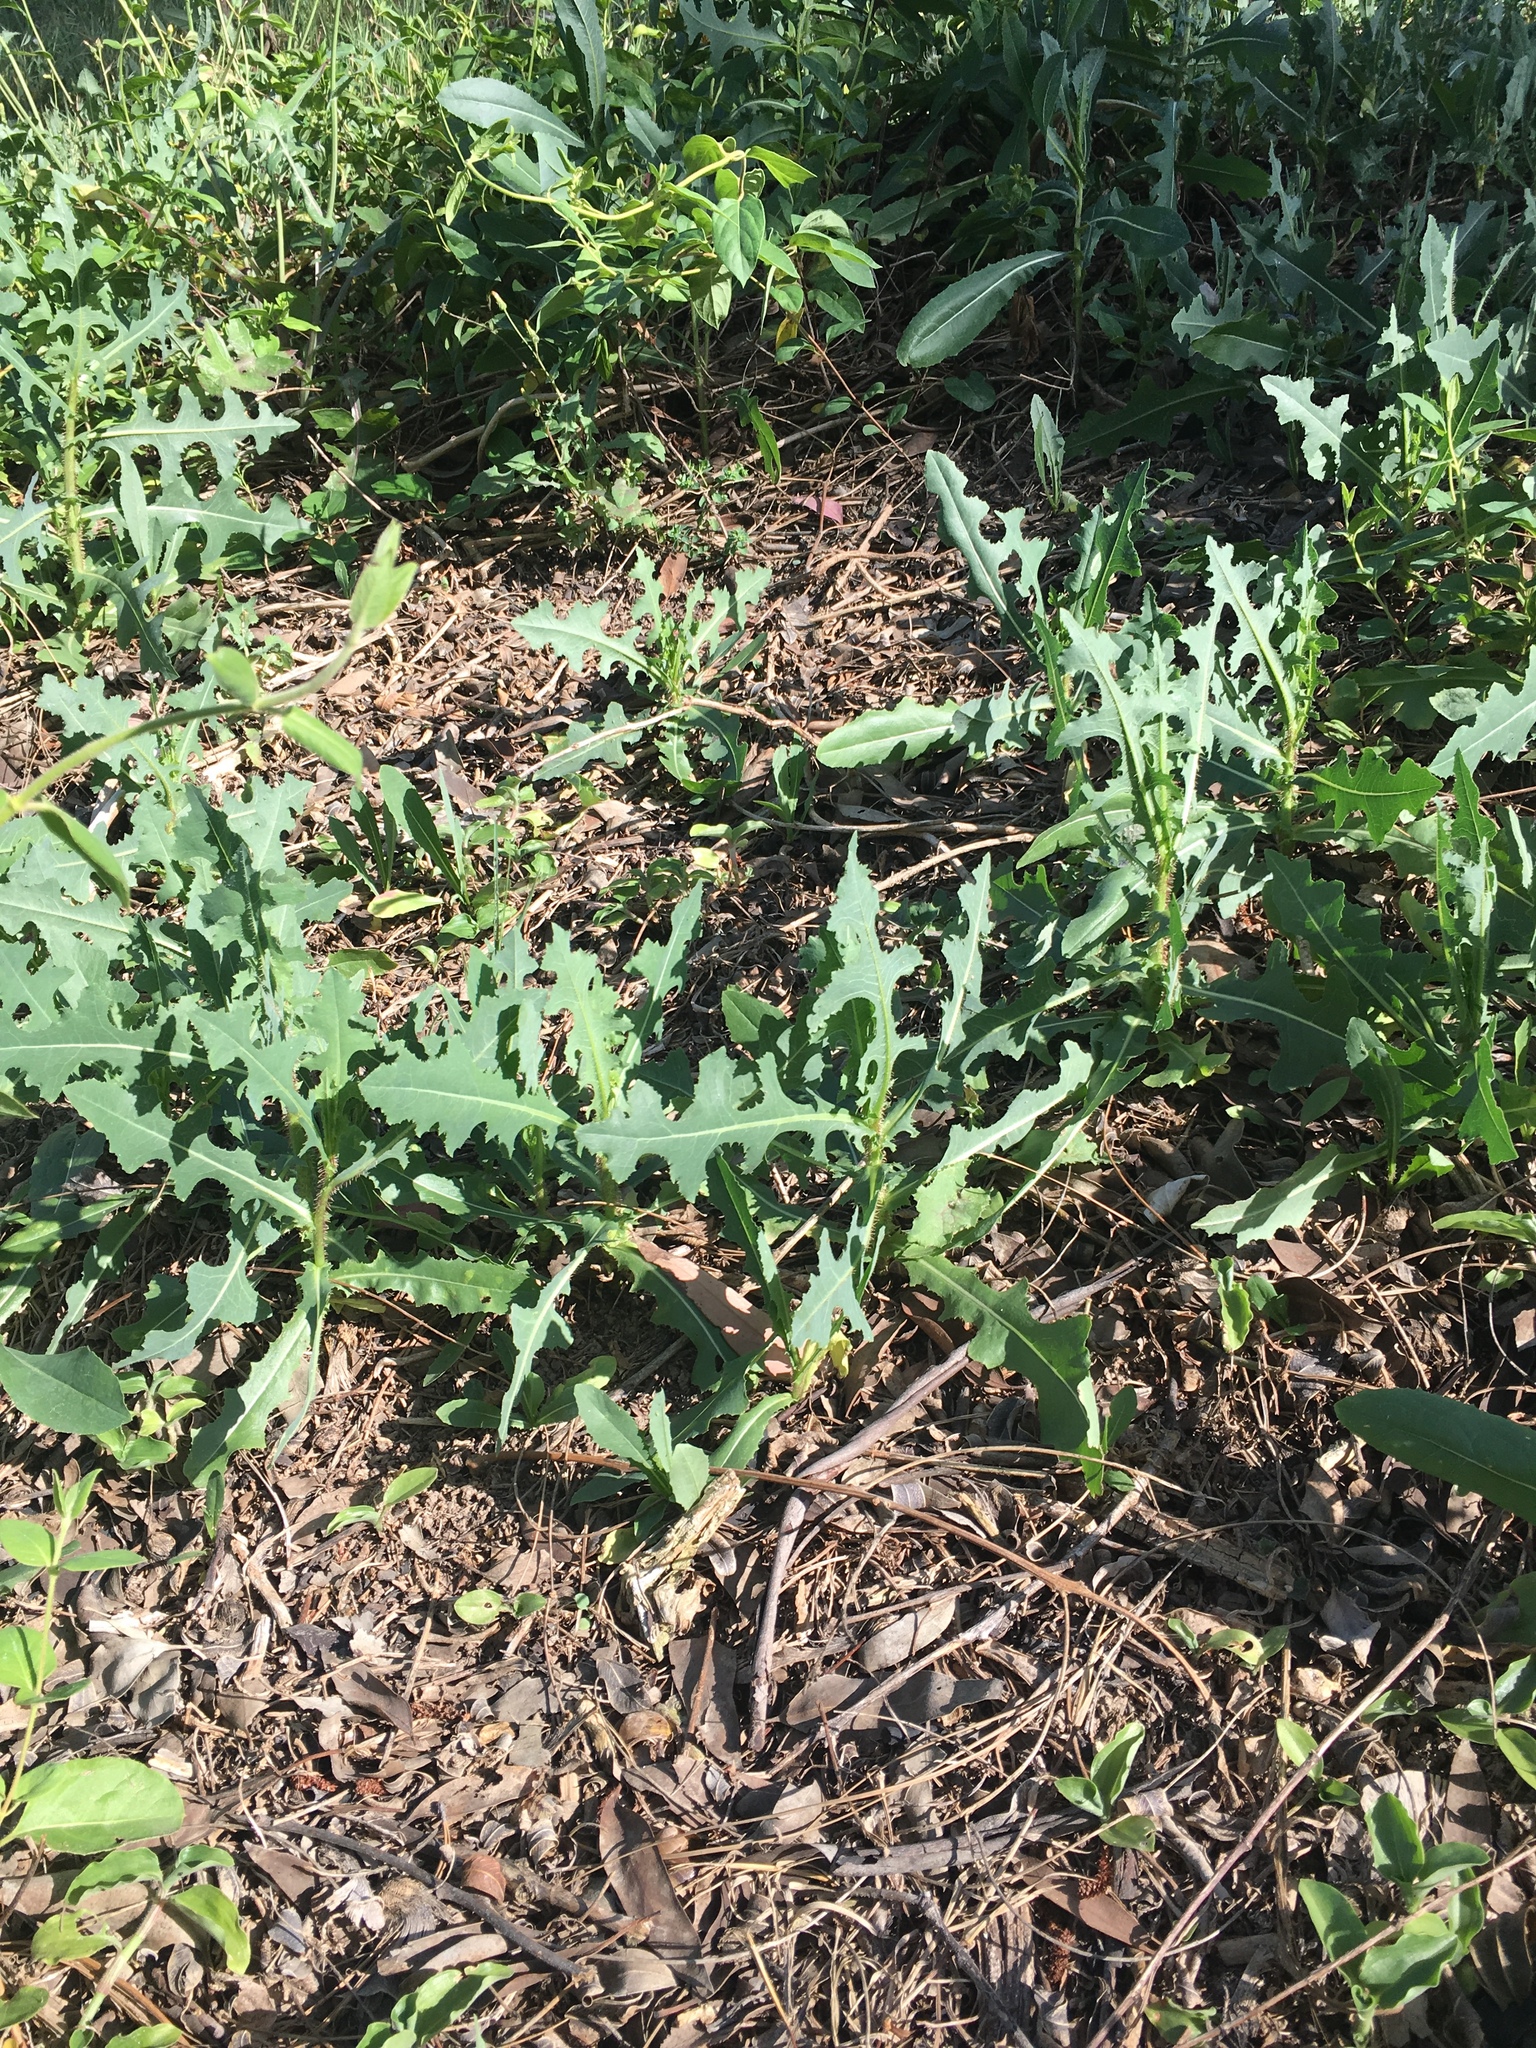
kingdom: Plantae
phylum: Tracheophyta
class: Magnoliopsida
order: Asterales
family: Asteraceae
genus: Lactuca
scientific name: Lactuca serriola
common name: Prickly lettuce
